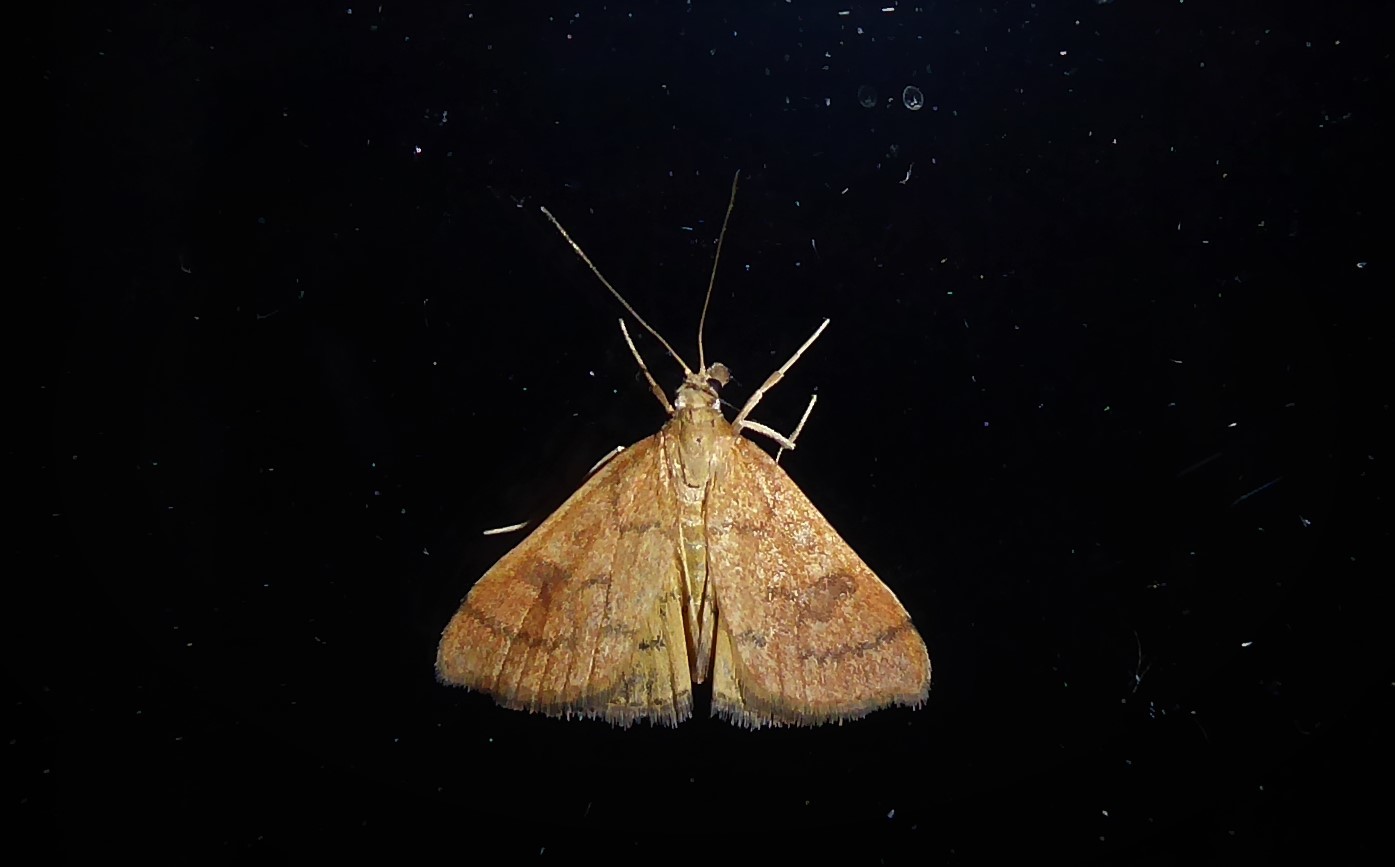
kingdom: Animalia
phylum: Arthropoda
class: Insecta
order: Lepidoptera
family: Crambidae
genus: Udea
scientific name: Udea Mnesictena flavidalis
